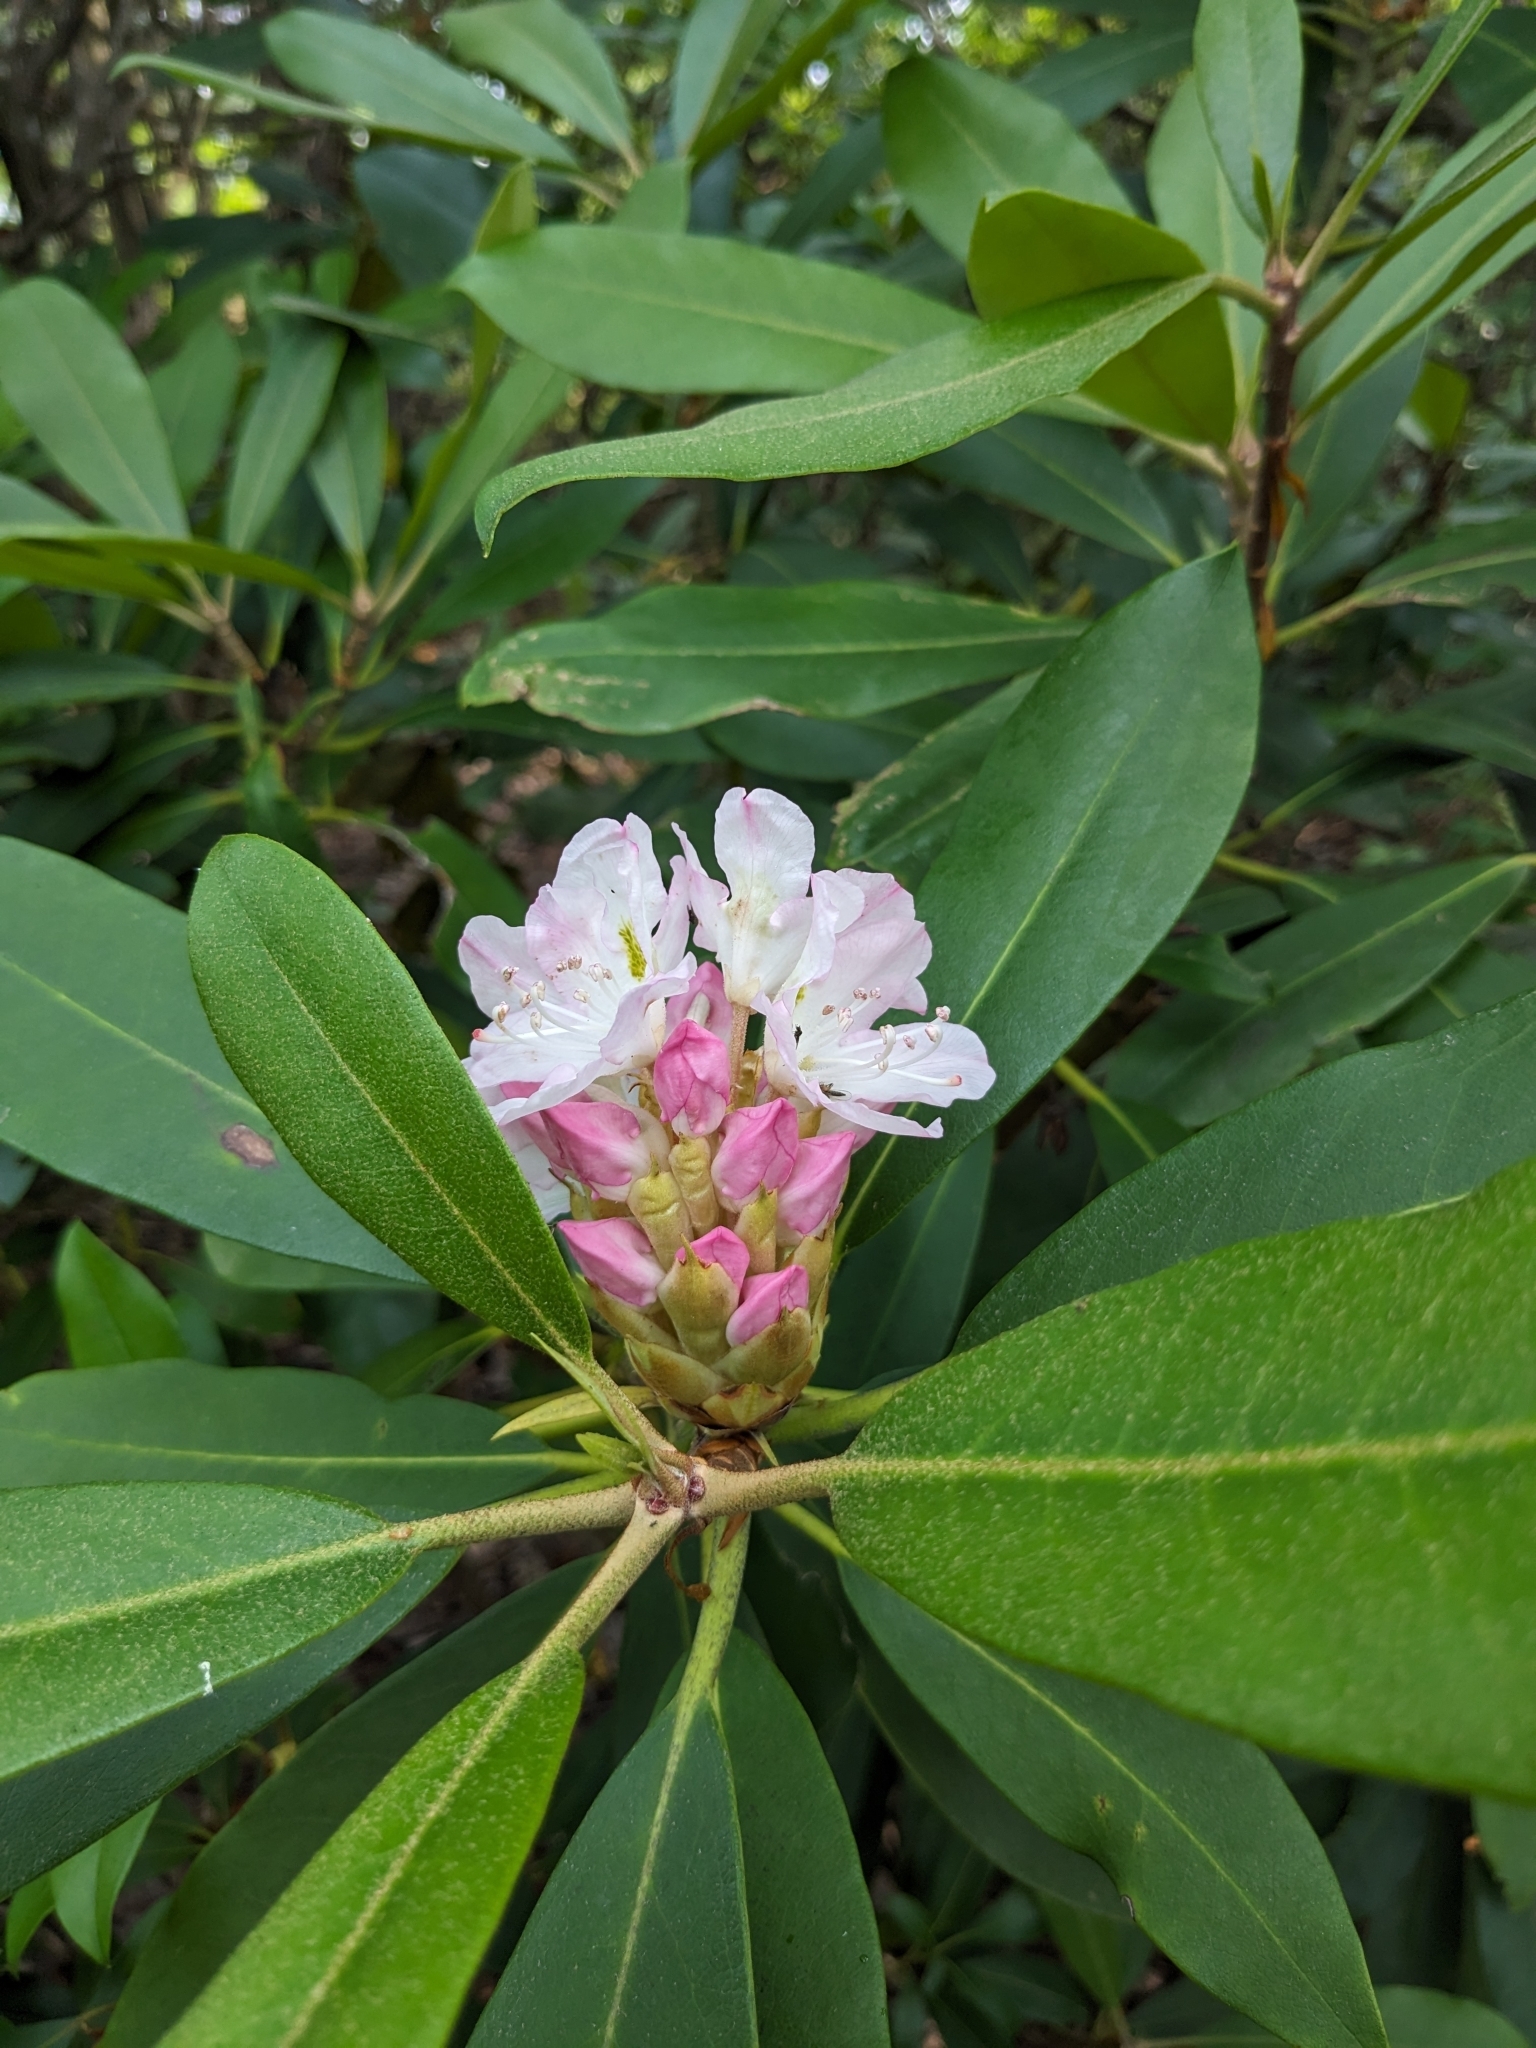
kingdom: Plantae
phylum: Tracheophyta
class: Magnoliopsida
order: Ericales
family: Ericaceae
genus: Rhododendron
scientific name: Rhododendron maximum
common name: Great rhododendron
